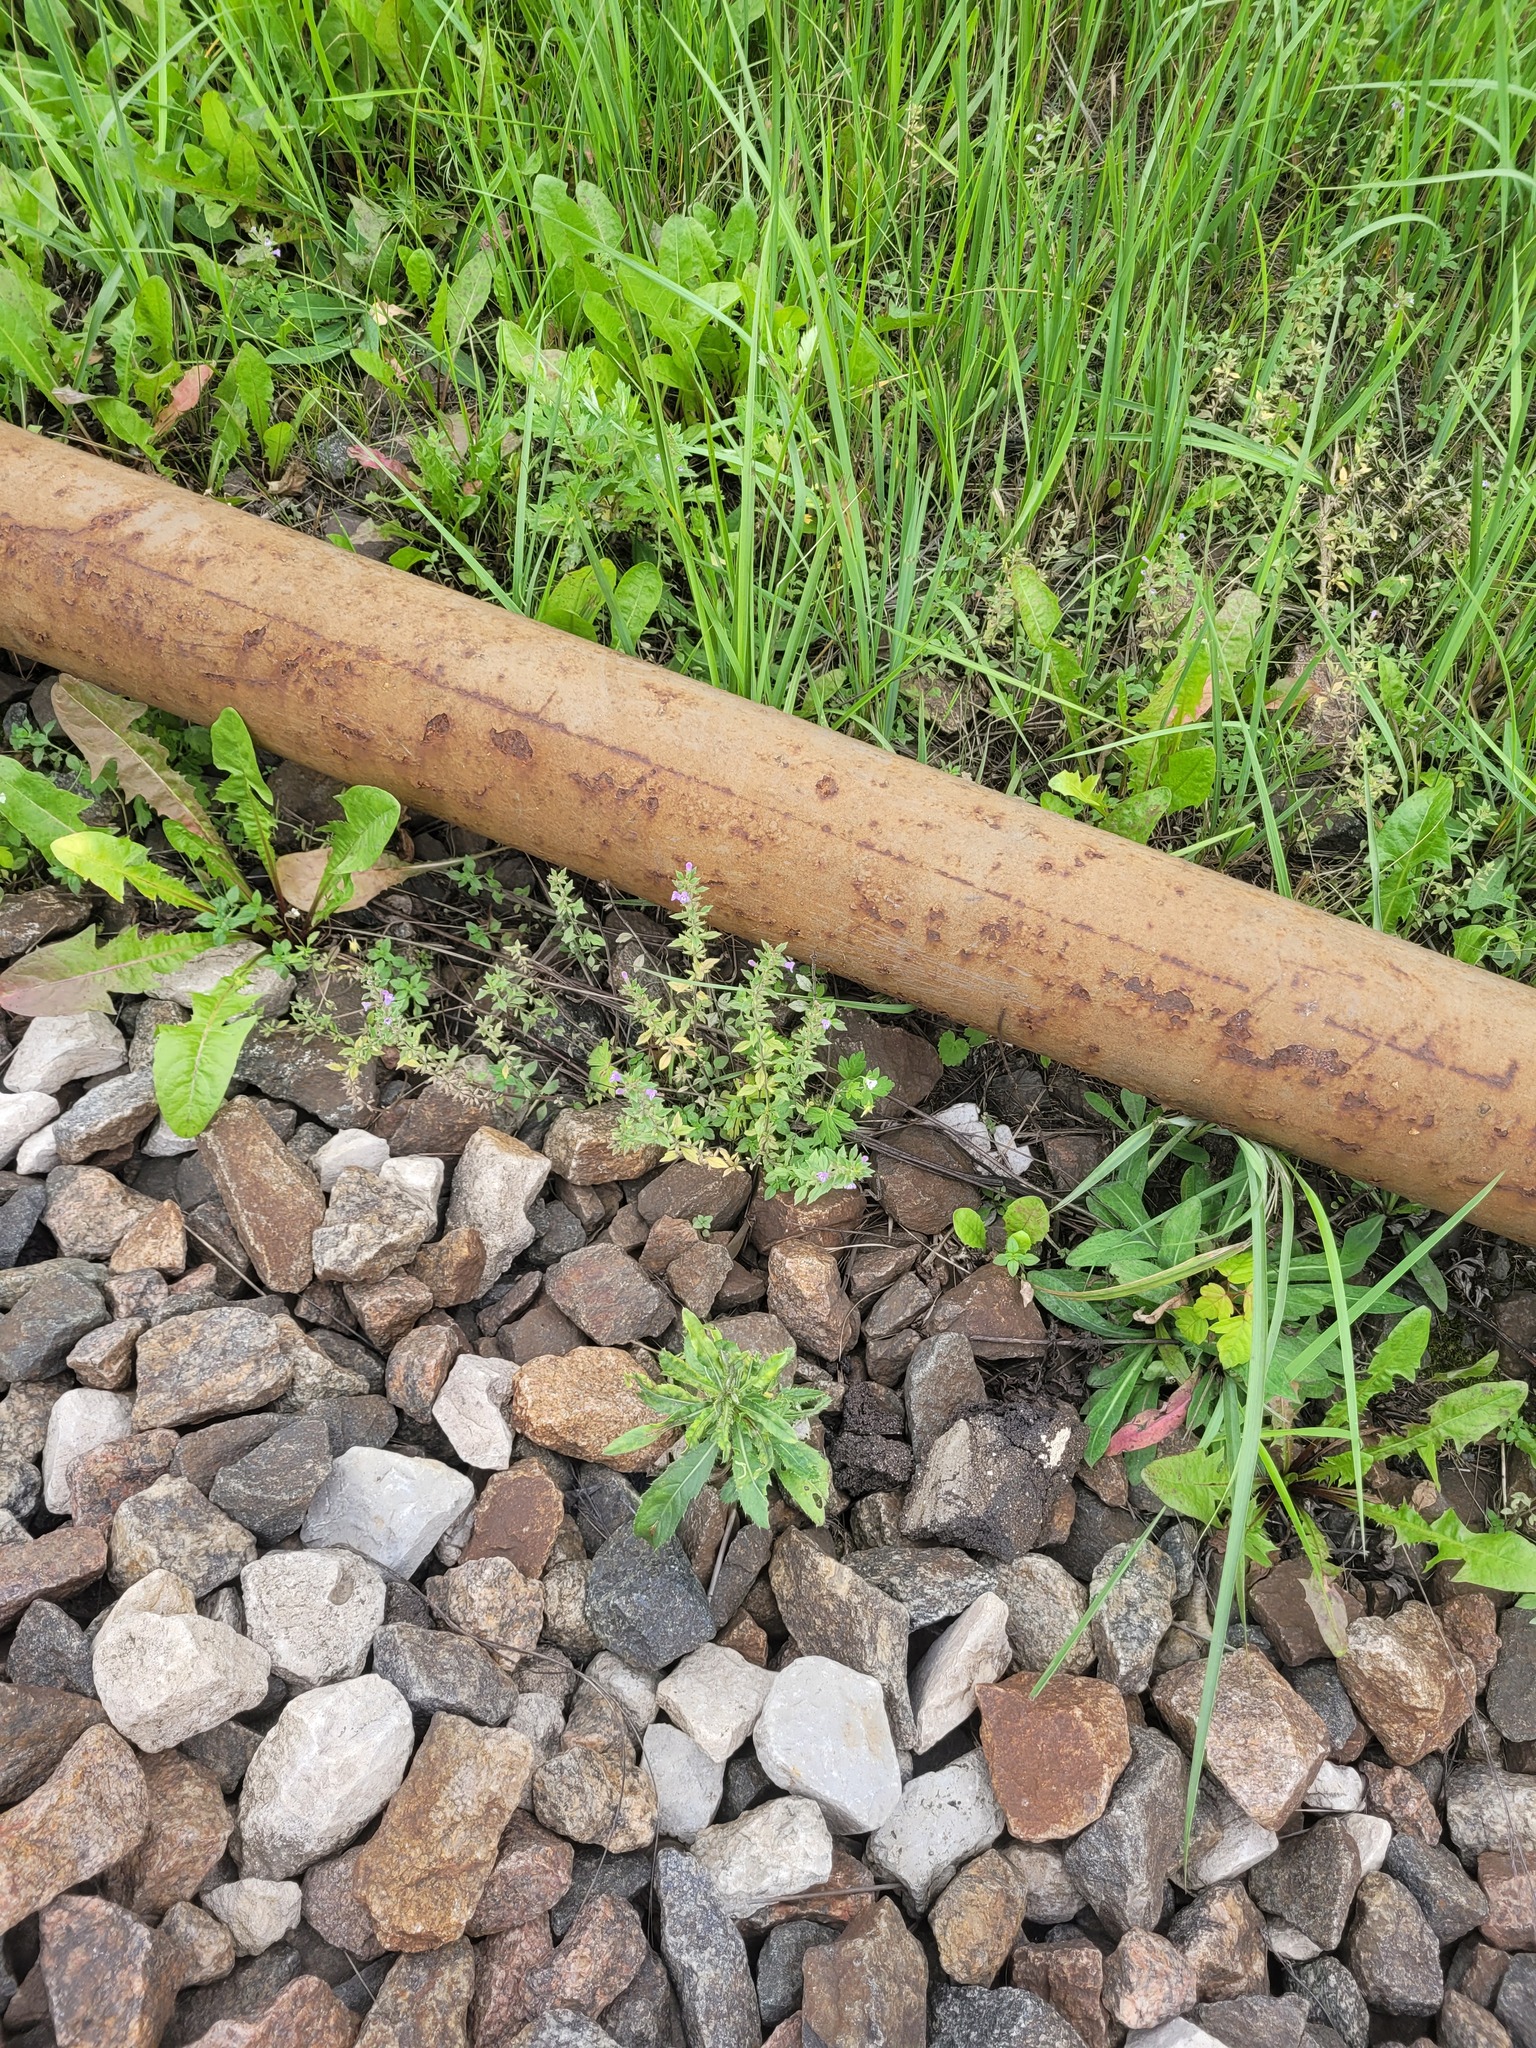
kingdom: Plantae
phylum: Tracheophyta
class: Magnoliopsida
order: Lamiales
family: Lamiaceae
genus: Clinopodium
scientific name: Clinopodium acinos
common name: Basil thyme
